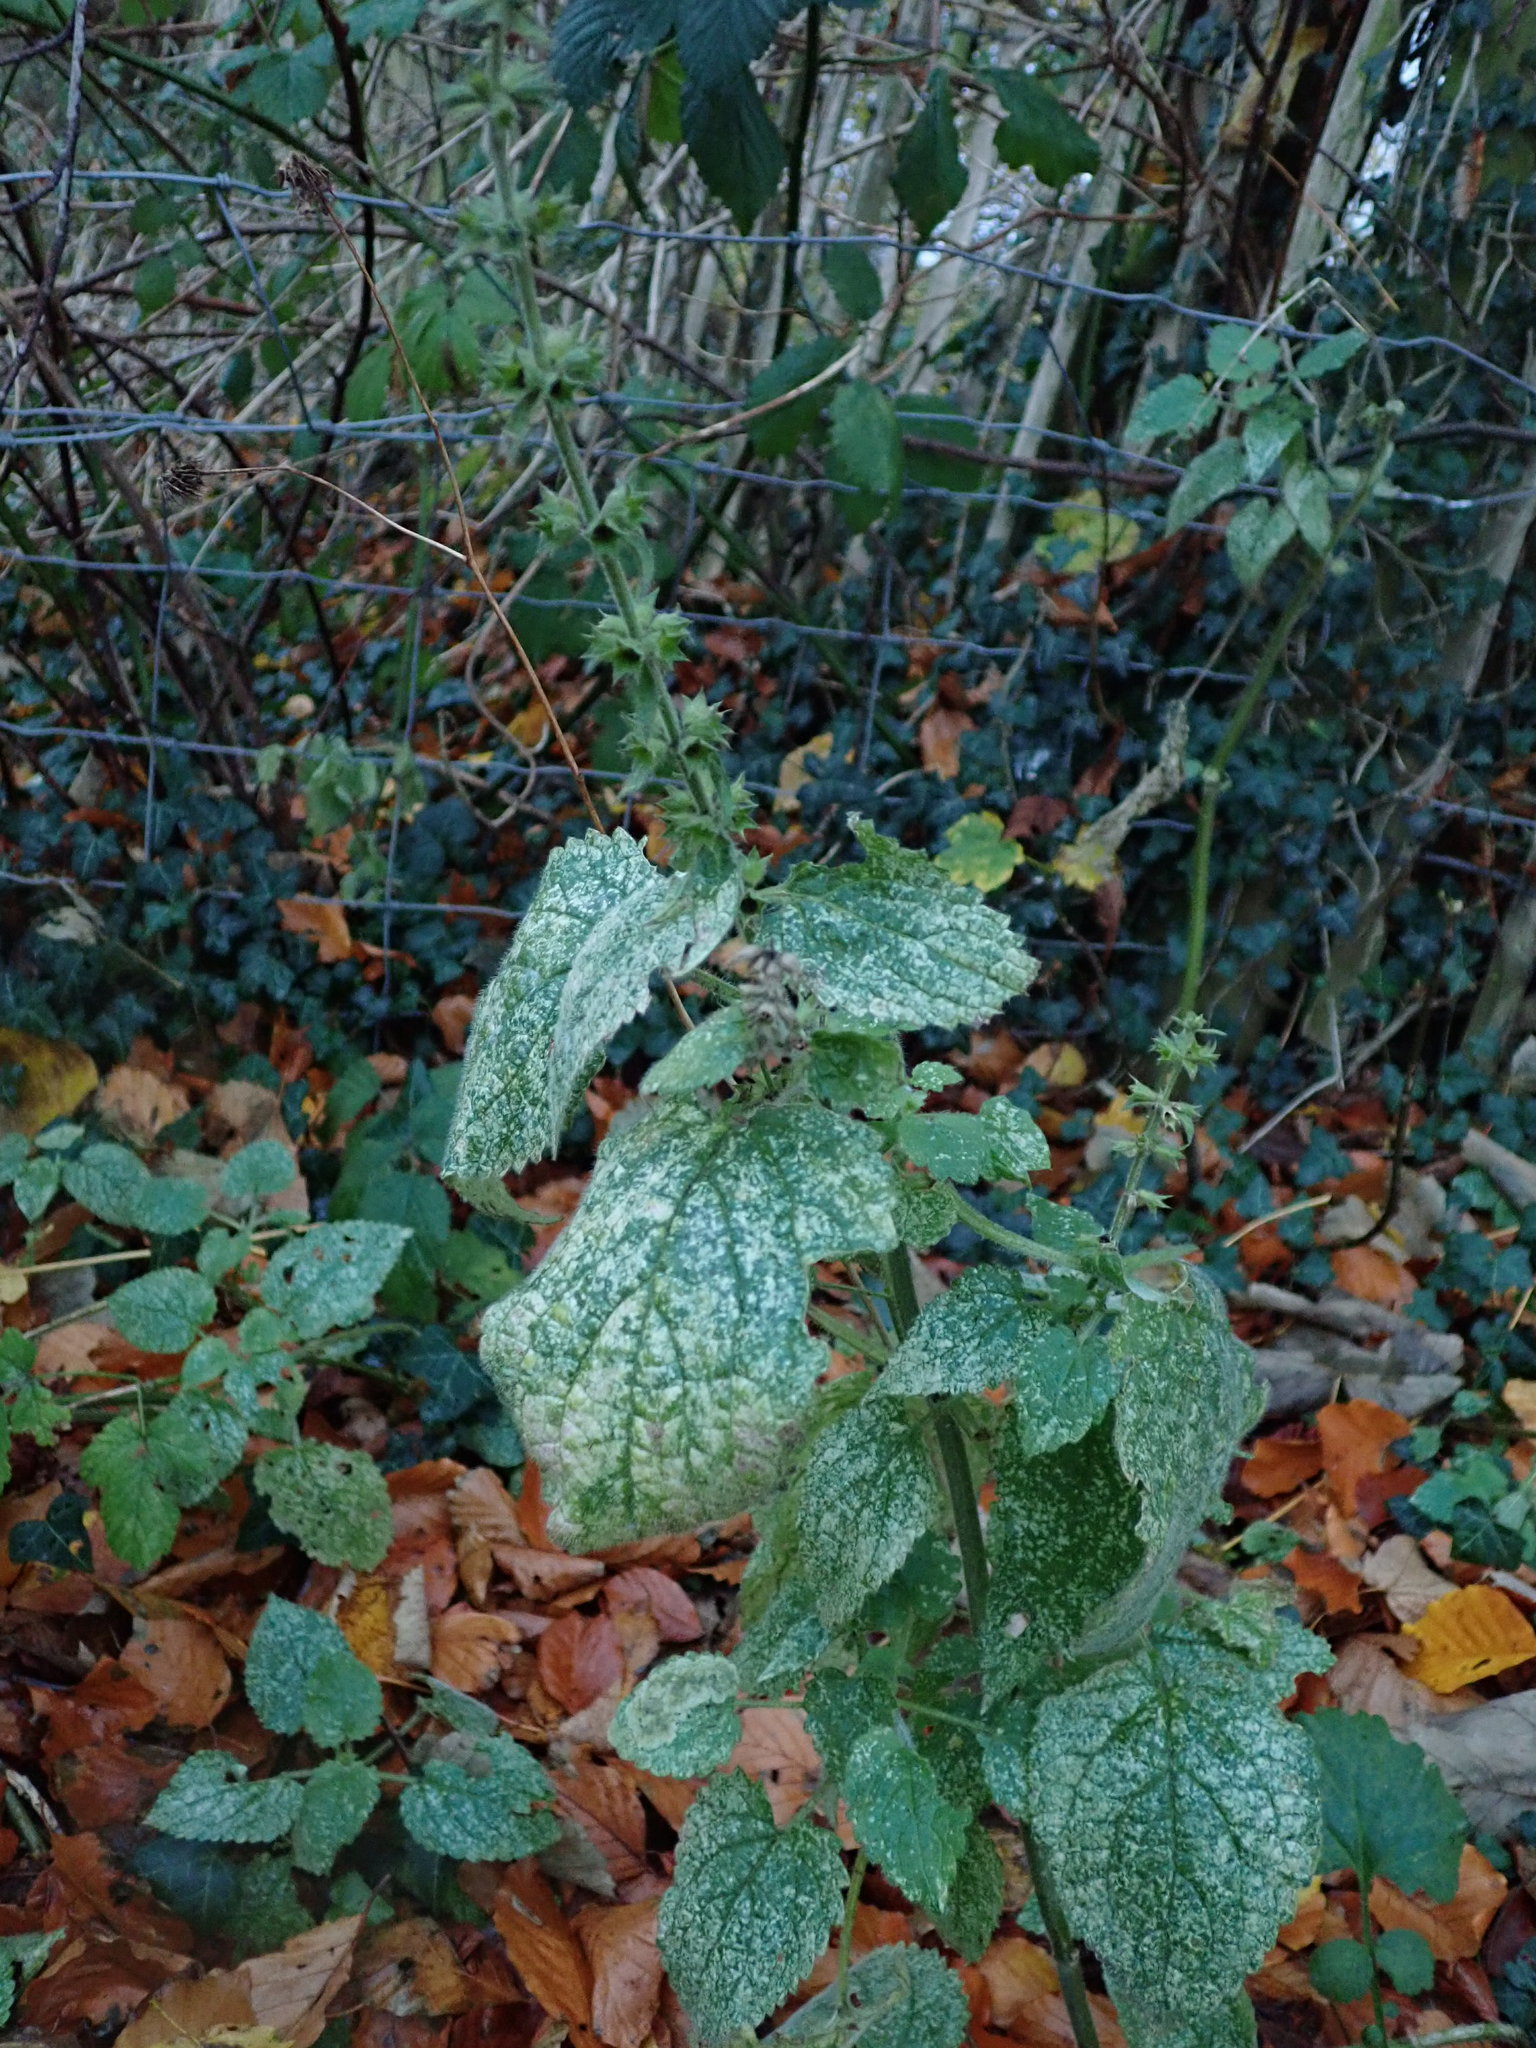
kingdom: Plantae
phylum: Tracheophyta
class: Magnoliopsida
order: Lamiales
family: Lamiaceae
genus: Stachys
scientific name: Stachys sylvatica
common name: Hedge woundwort
